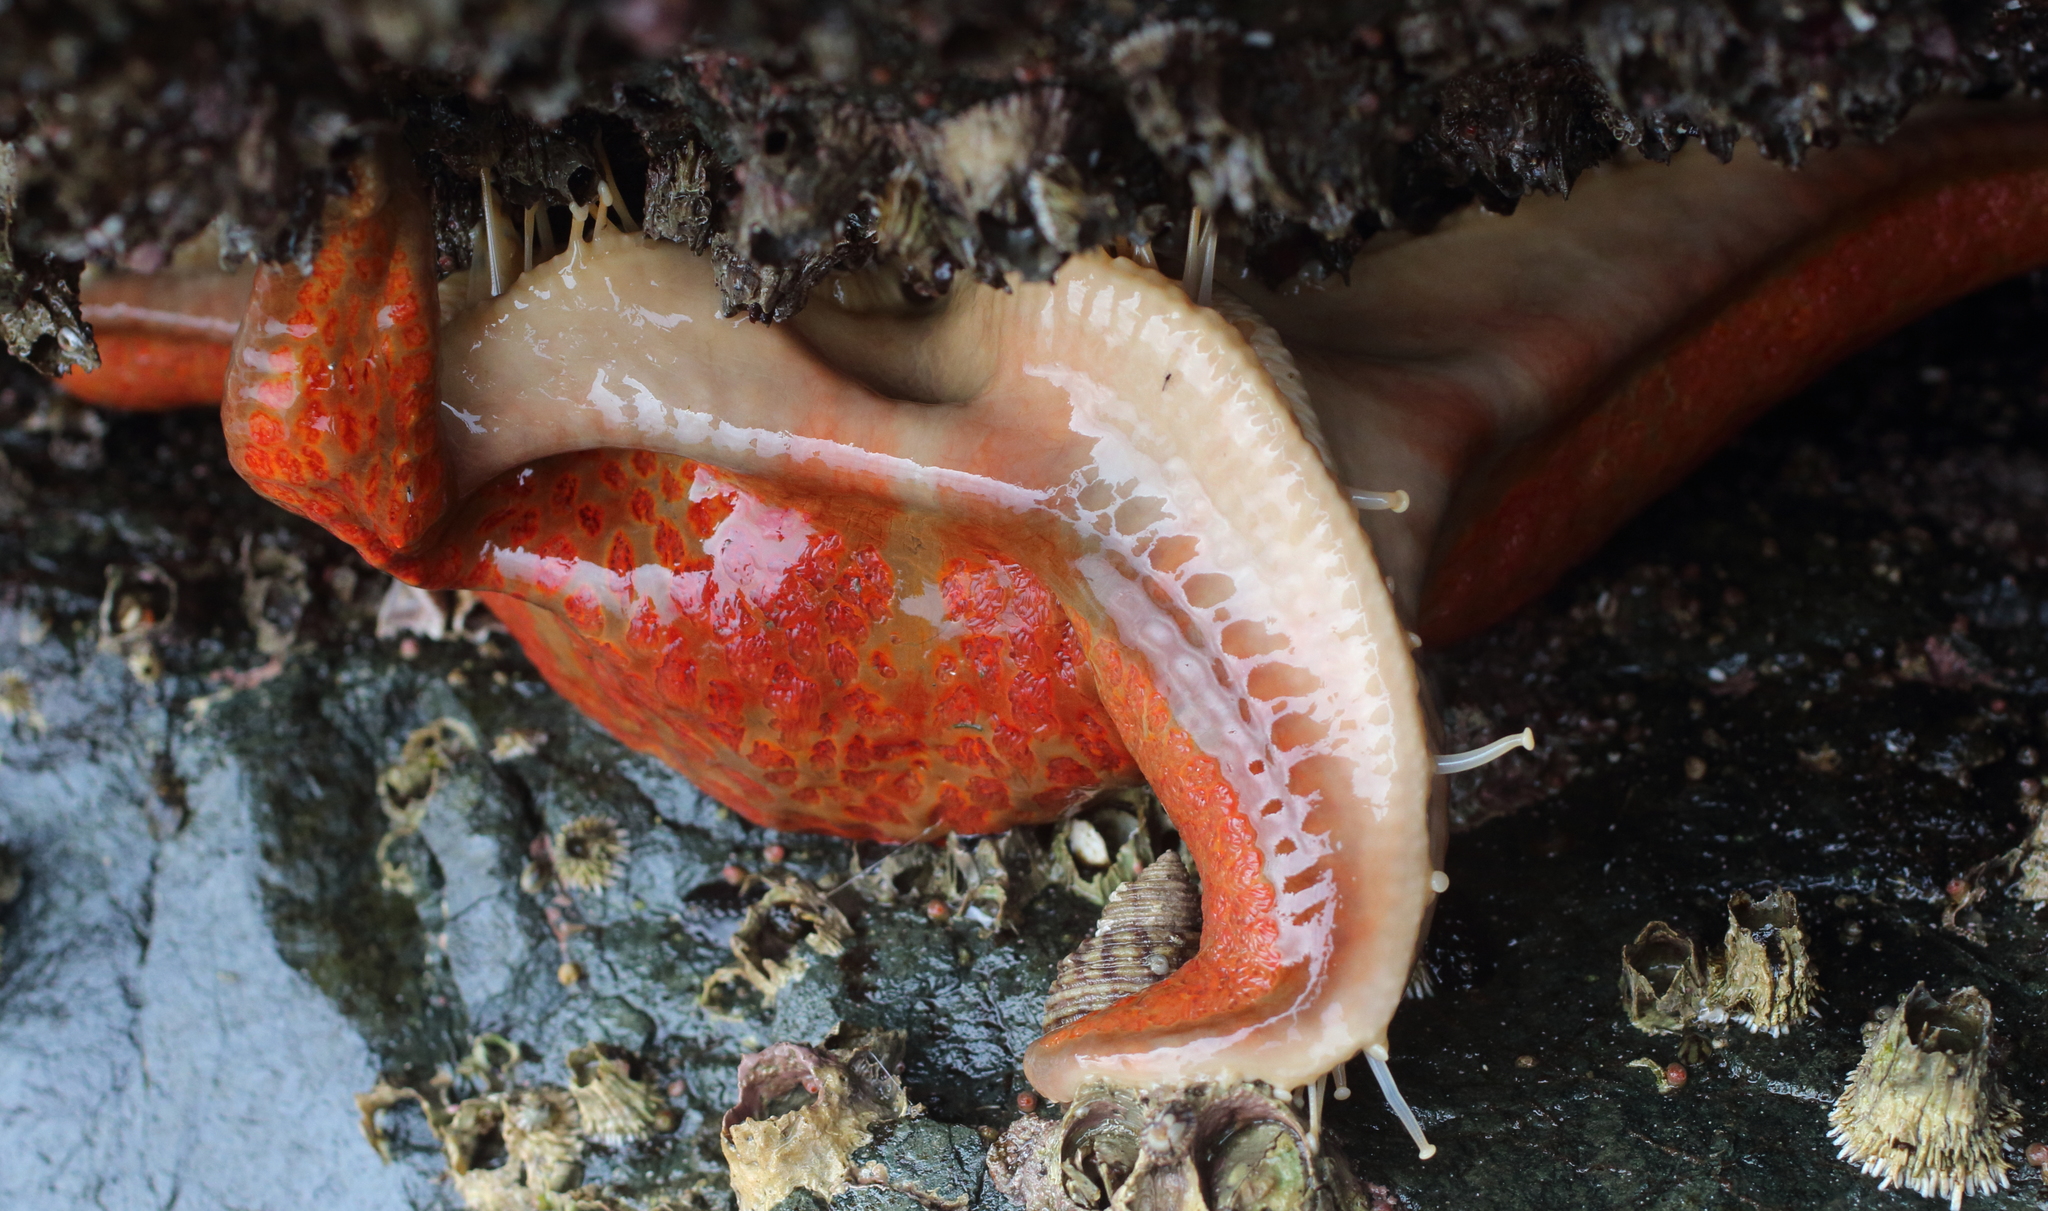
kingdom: Animalia
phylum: Echinodermata
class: Asteroidea
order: Valvatida
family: Asteropseidae
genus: Dermasterias
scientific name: Dermasterias imbricata
